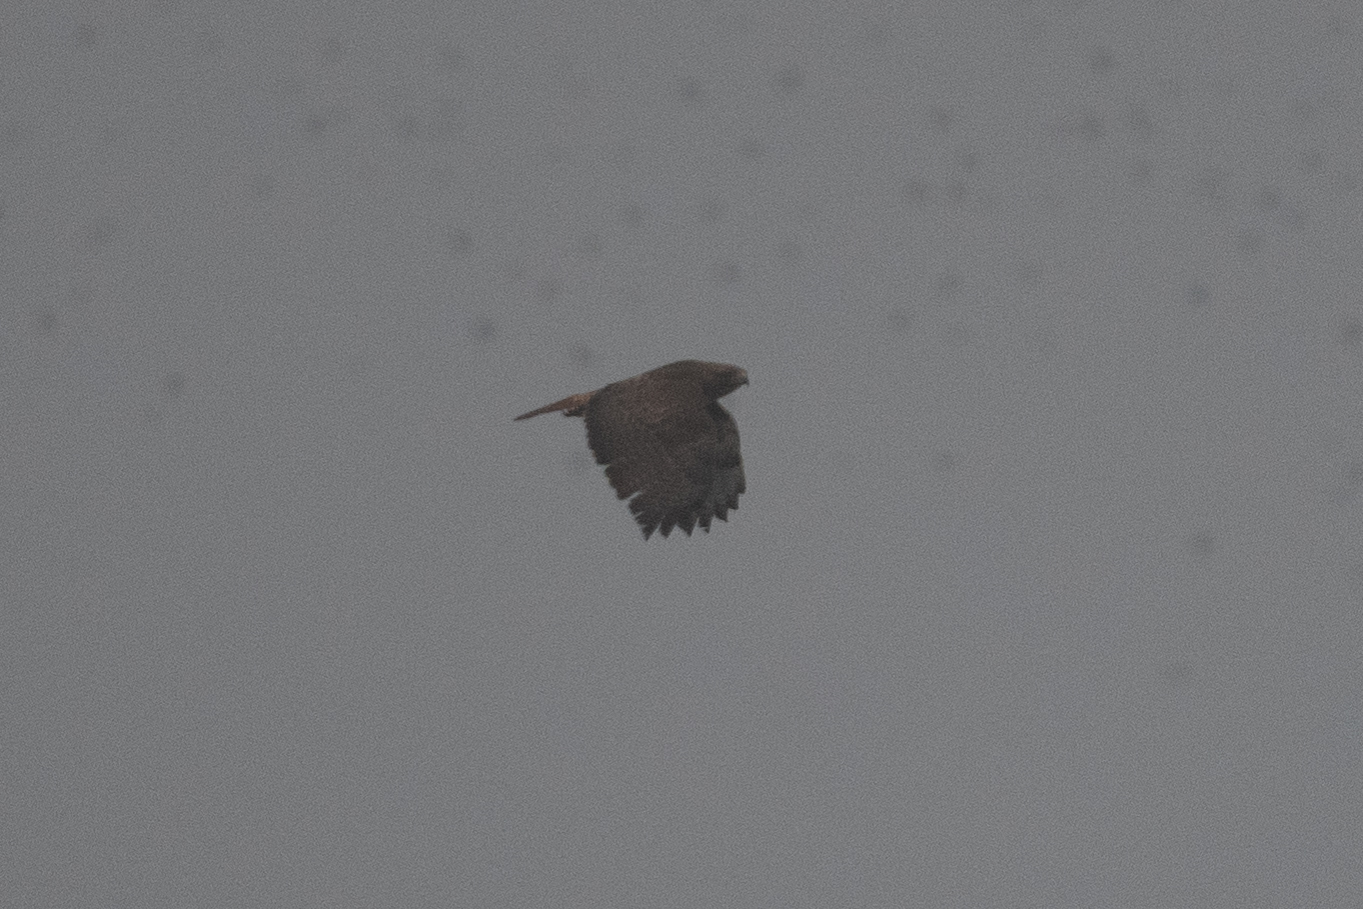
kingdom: Animalia
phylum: Chordata
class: Aves
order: Accipitriformes
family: Accipitridae
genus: Buteo
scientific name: Buteo jamaicensis
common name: Red-tailed hawk
